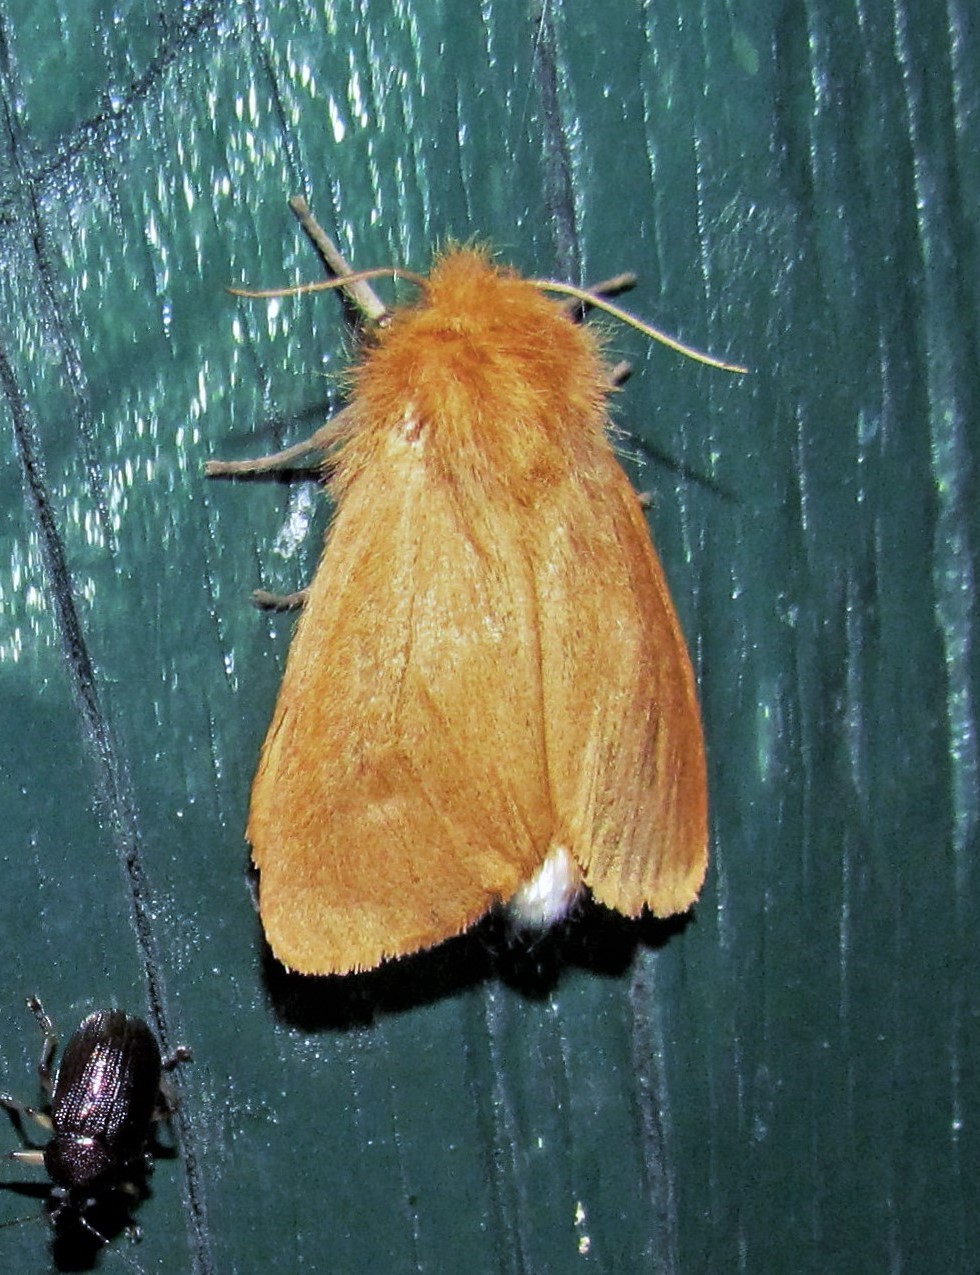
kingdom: Animalia
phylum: Arthropoda
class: Insecta
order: Lepidoptera
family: Erebidae
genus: Paracles
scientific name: Paracles aurantiaca
